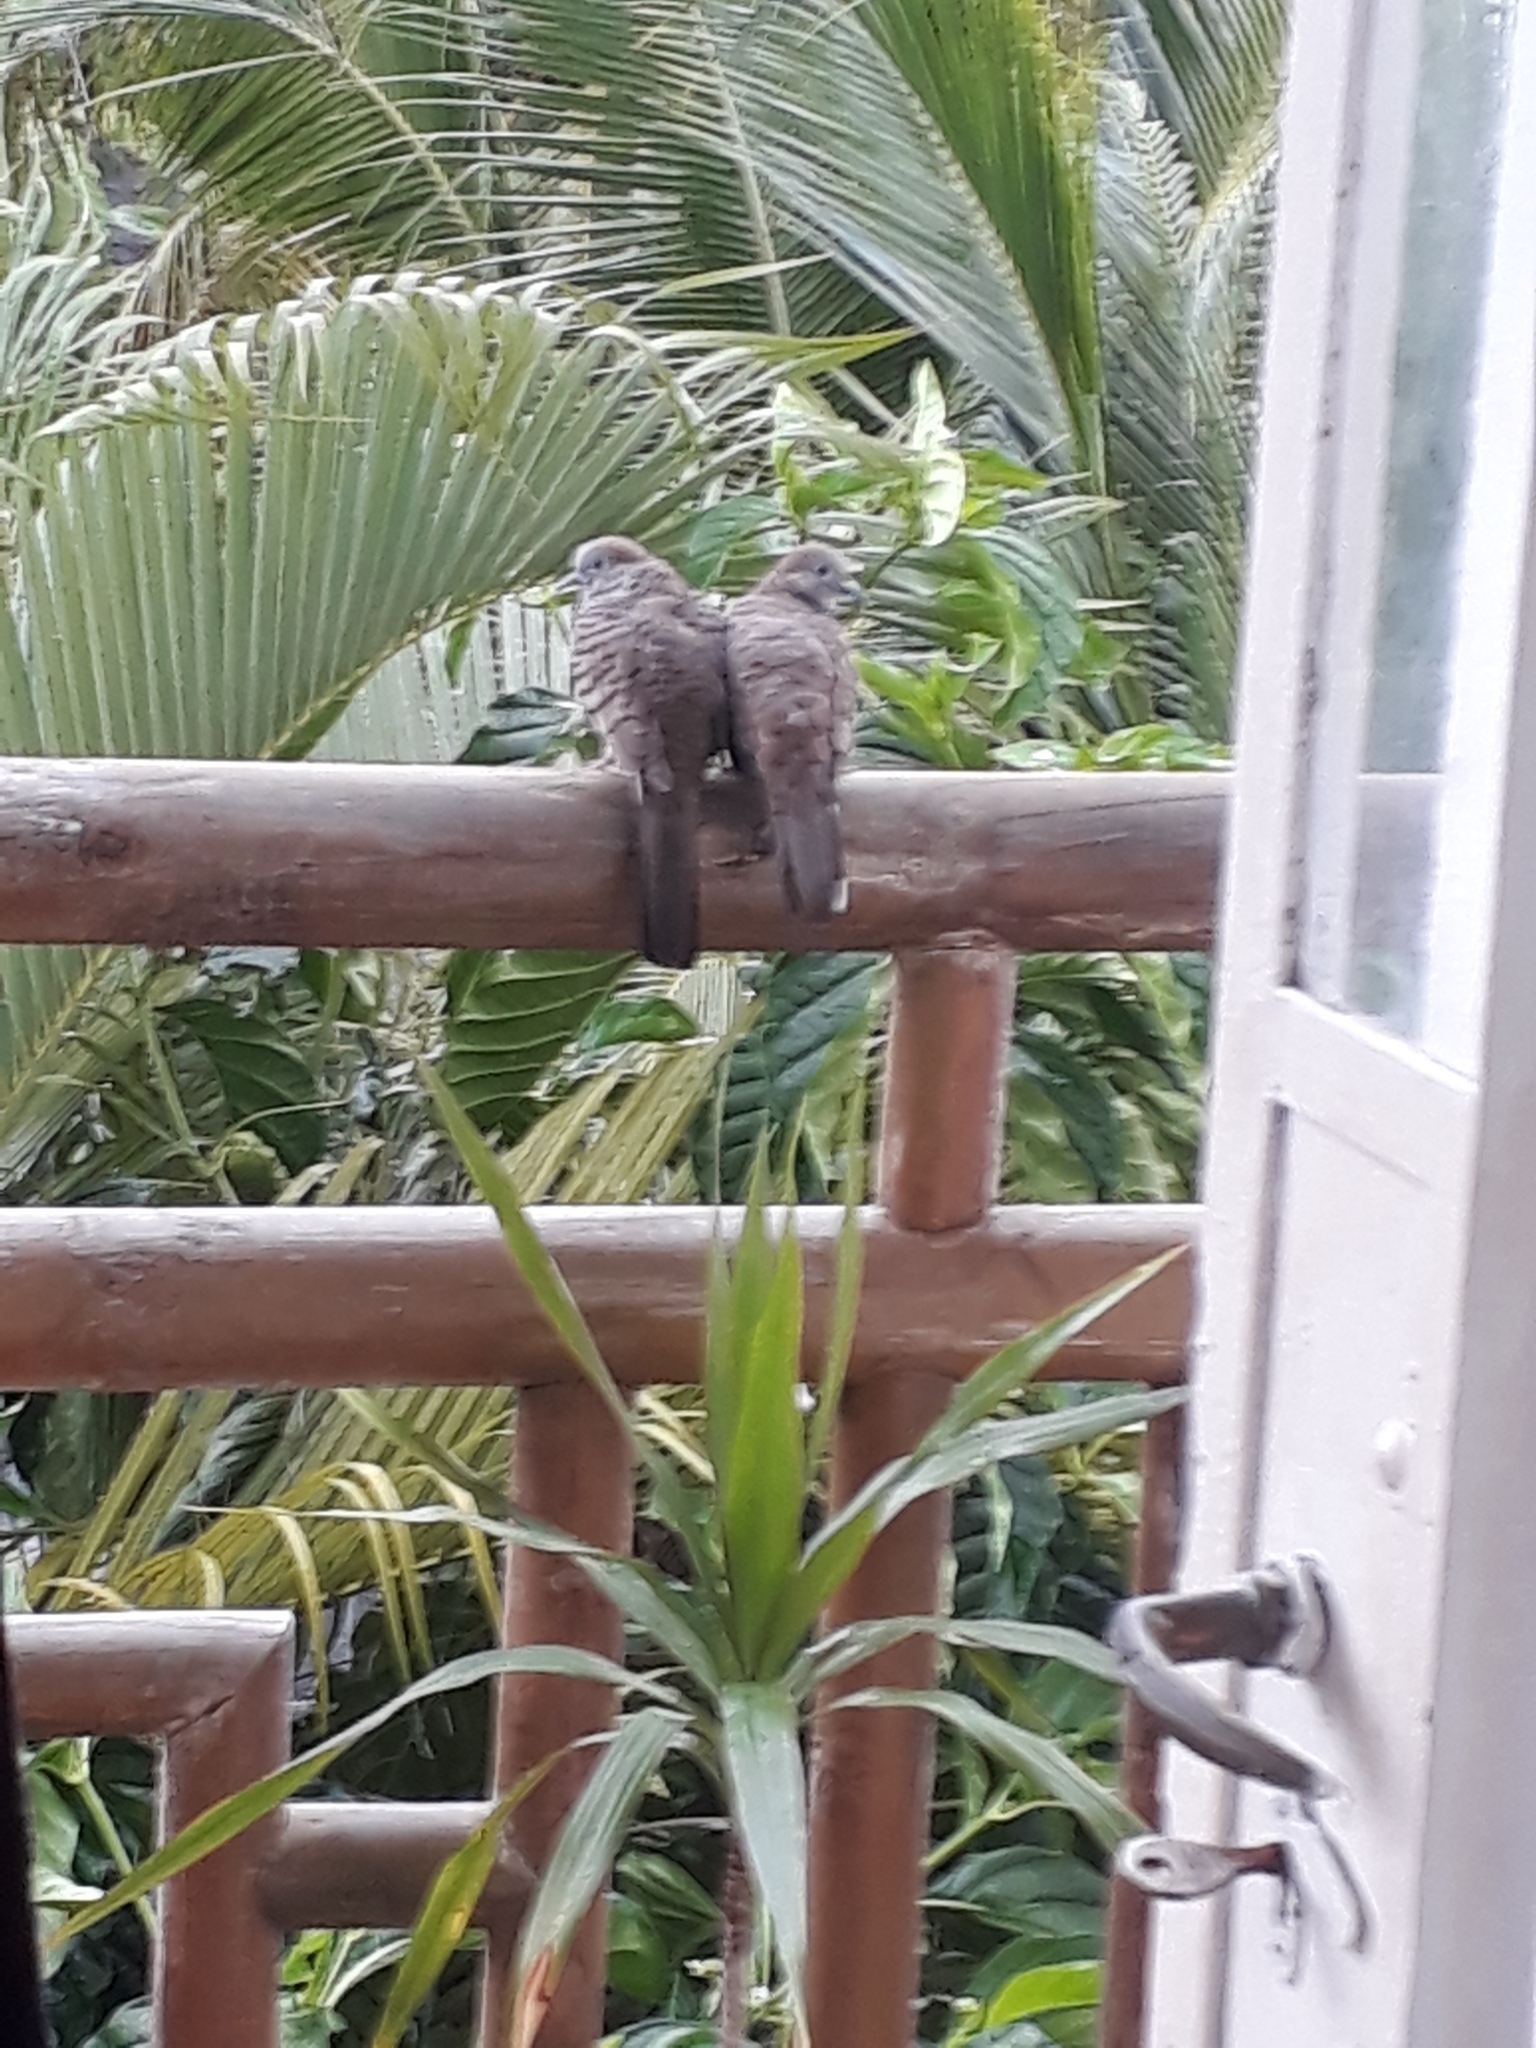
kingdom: Animalia
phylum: Chordata
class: Aves
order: Columbiformes
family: Columbidae
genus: Geopelia
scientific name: Geopelia striata
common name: Zebra dove
